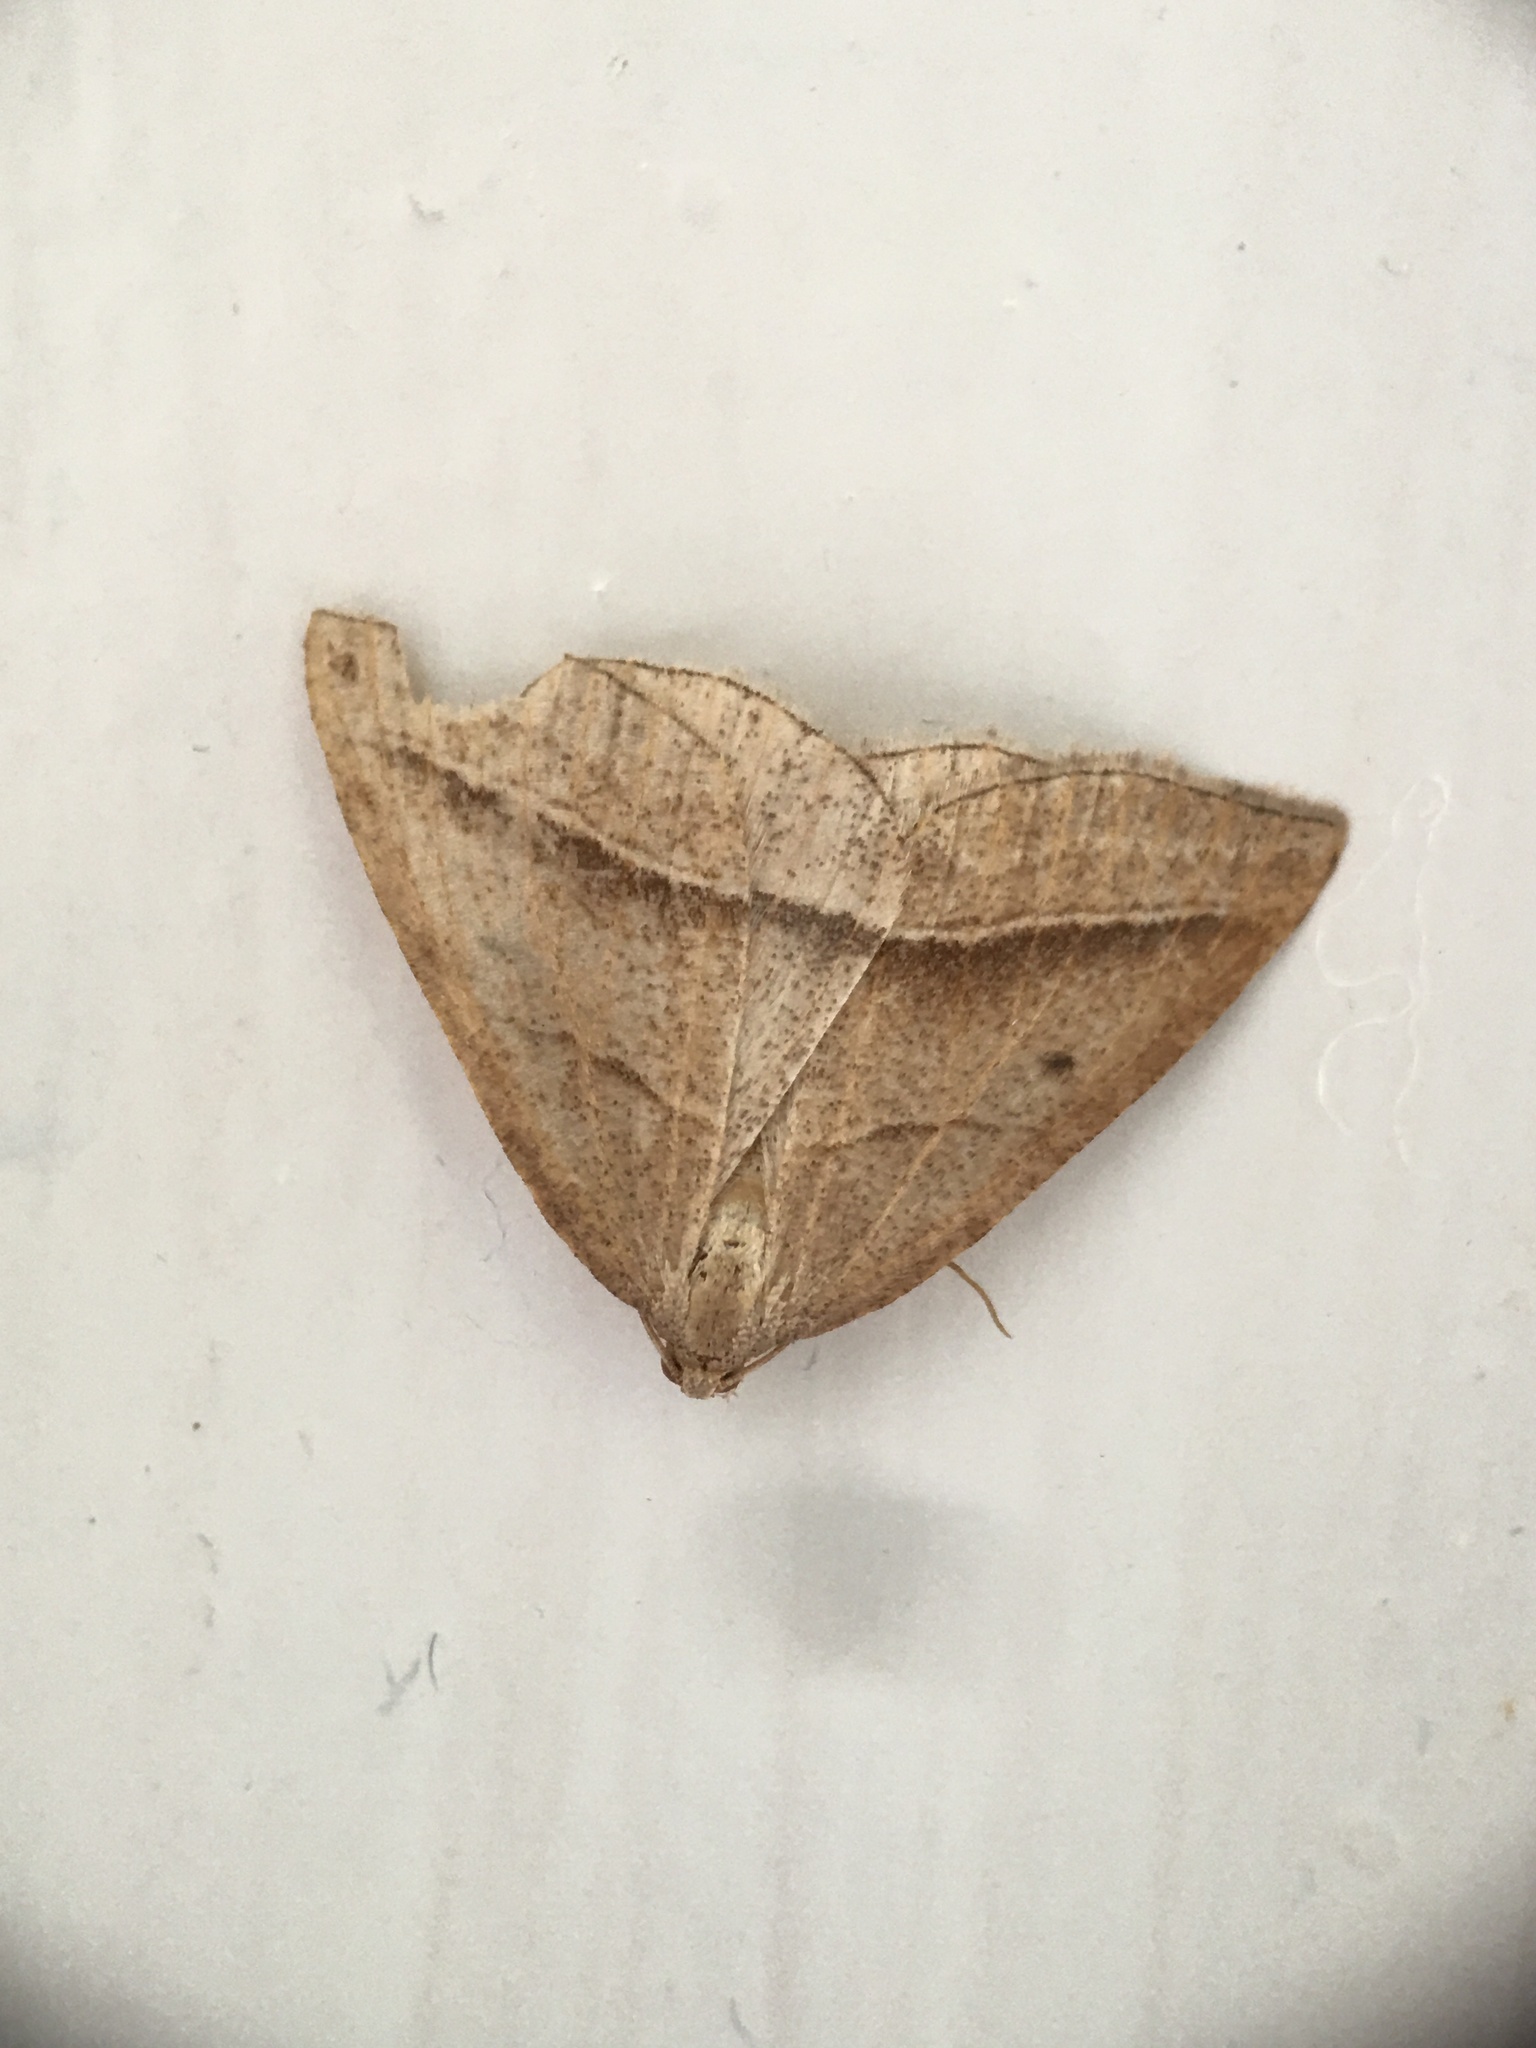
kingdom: Animalia
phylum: Arthropoda
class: Insecta
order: Lepidoptera
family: Pterophoridae
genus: Pterophorus
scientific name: Pterophorus Petrophora chlorosata
